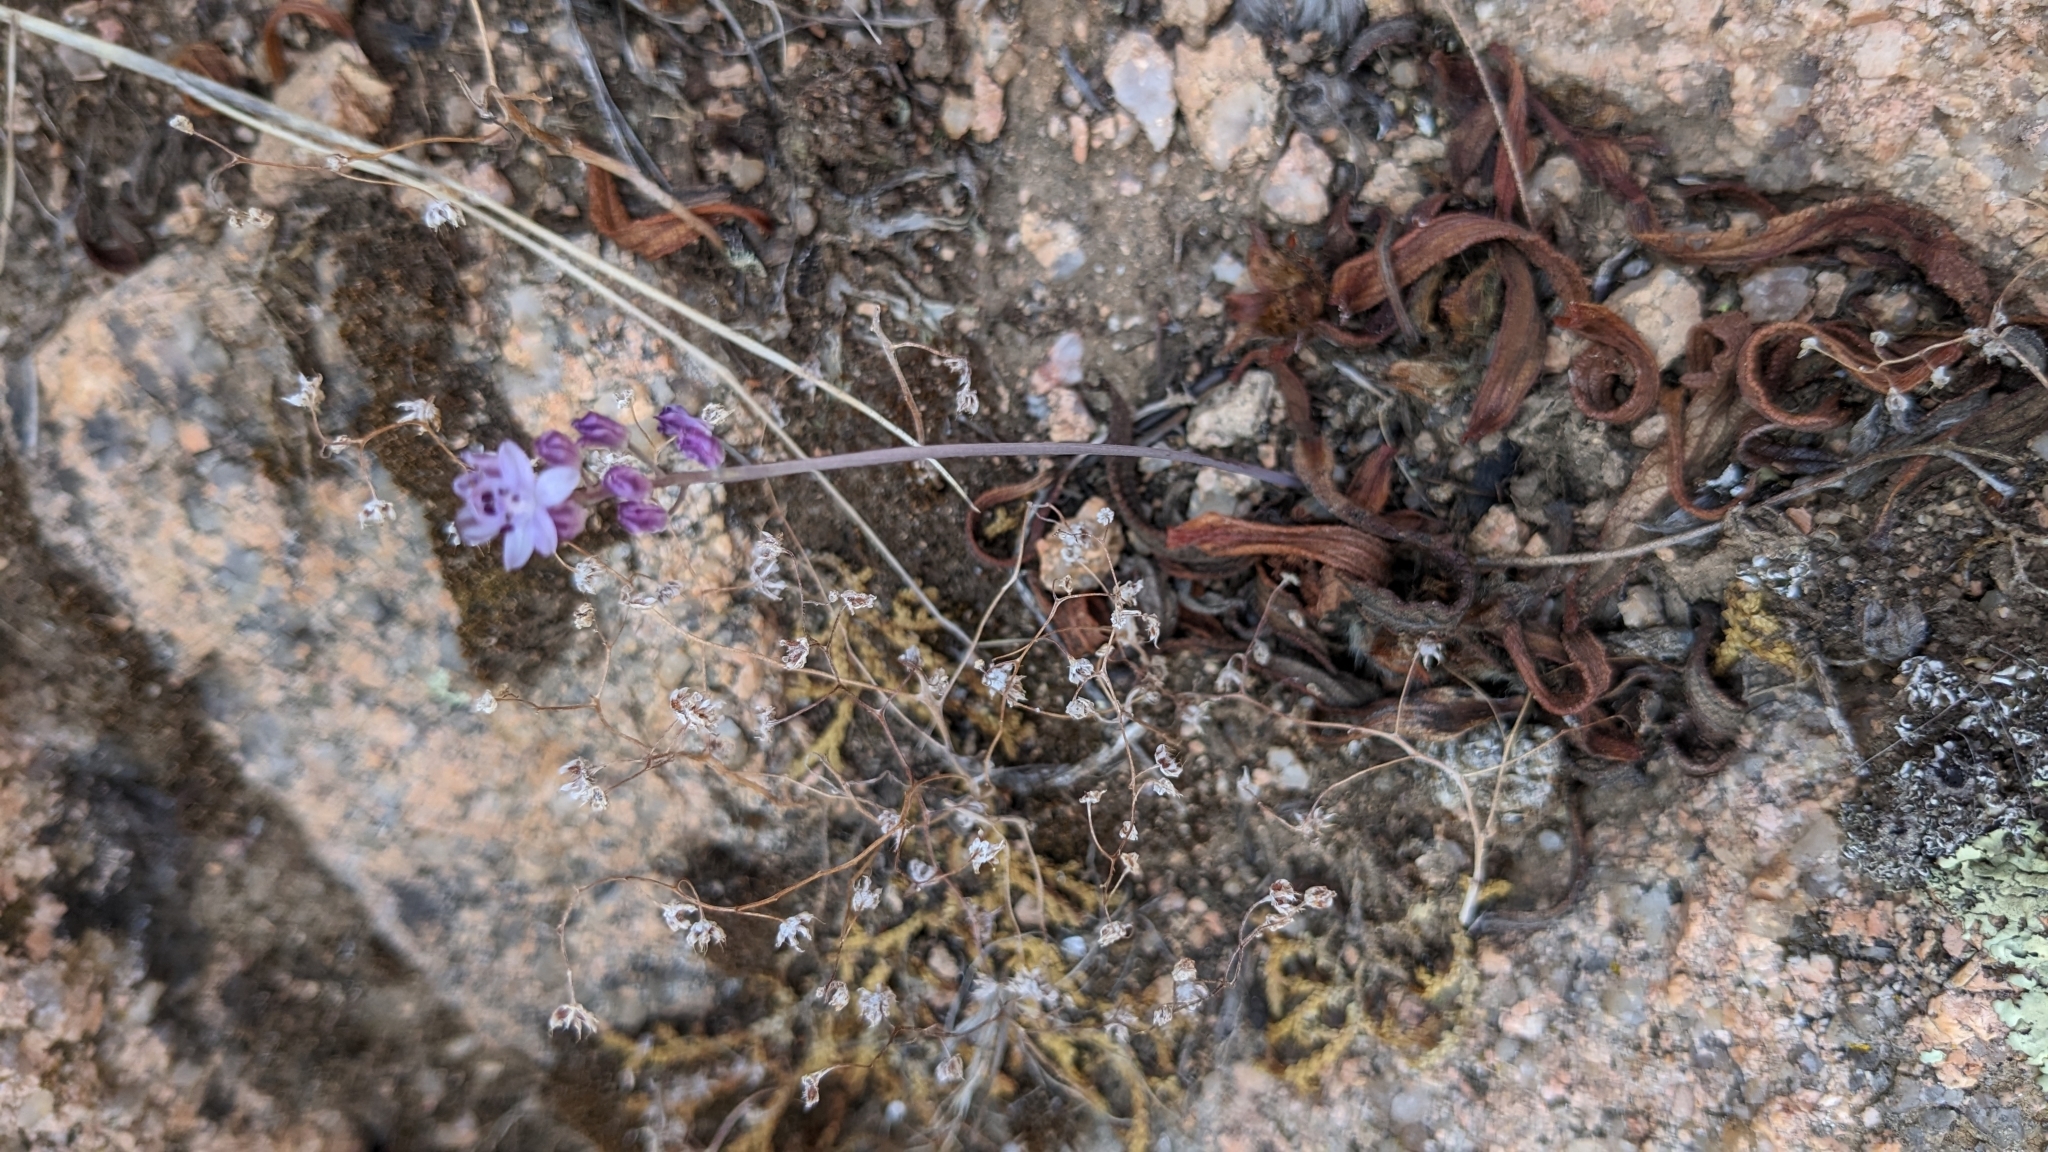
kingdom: Plantae
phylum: Tracheophyta
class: Liliopsida
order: Asparagales
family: Asparagaceae
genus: Prospero
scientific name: Prospero autumnale
